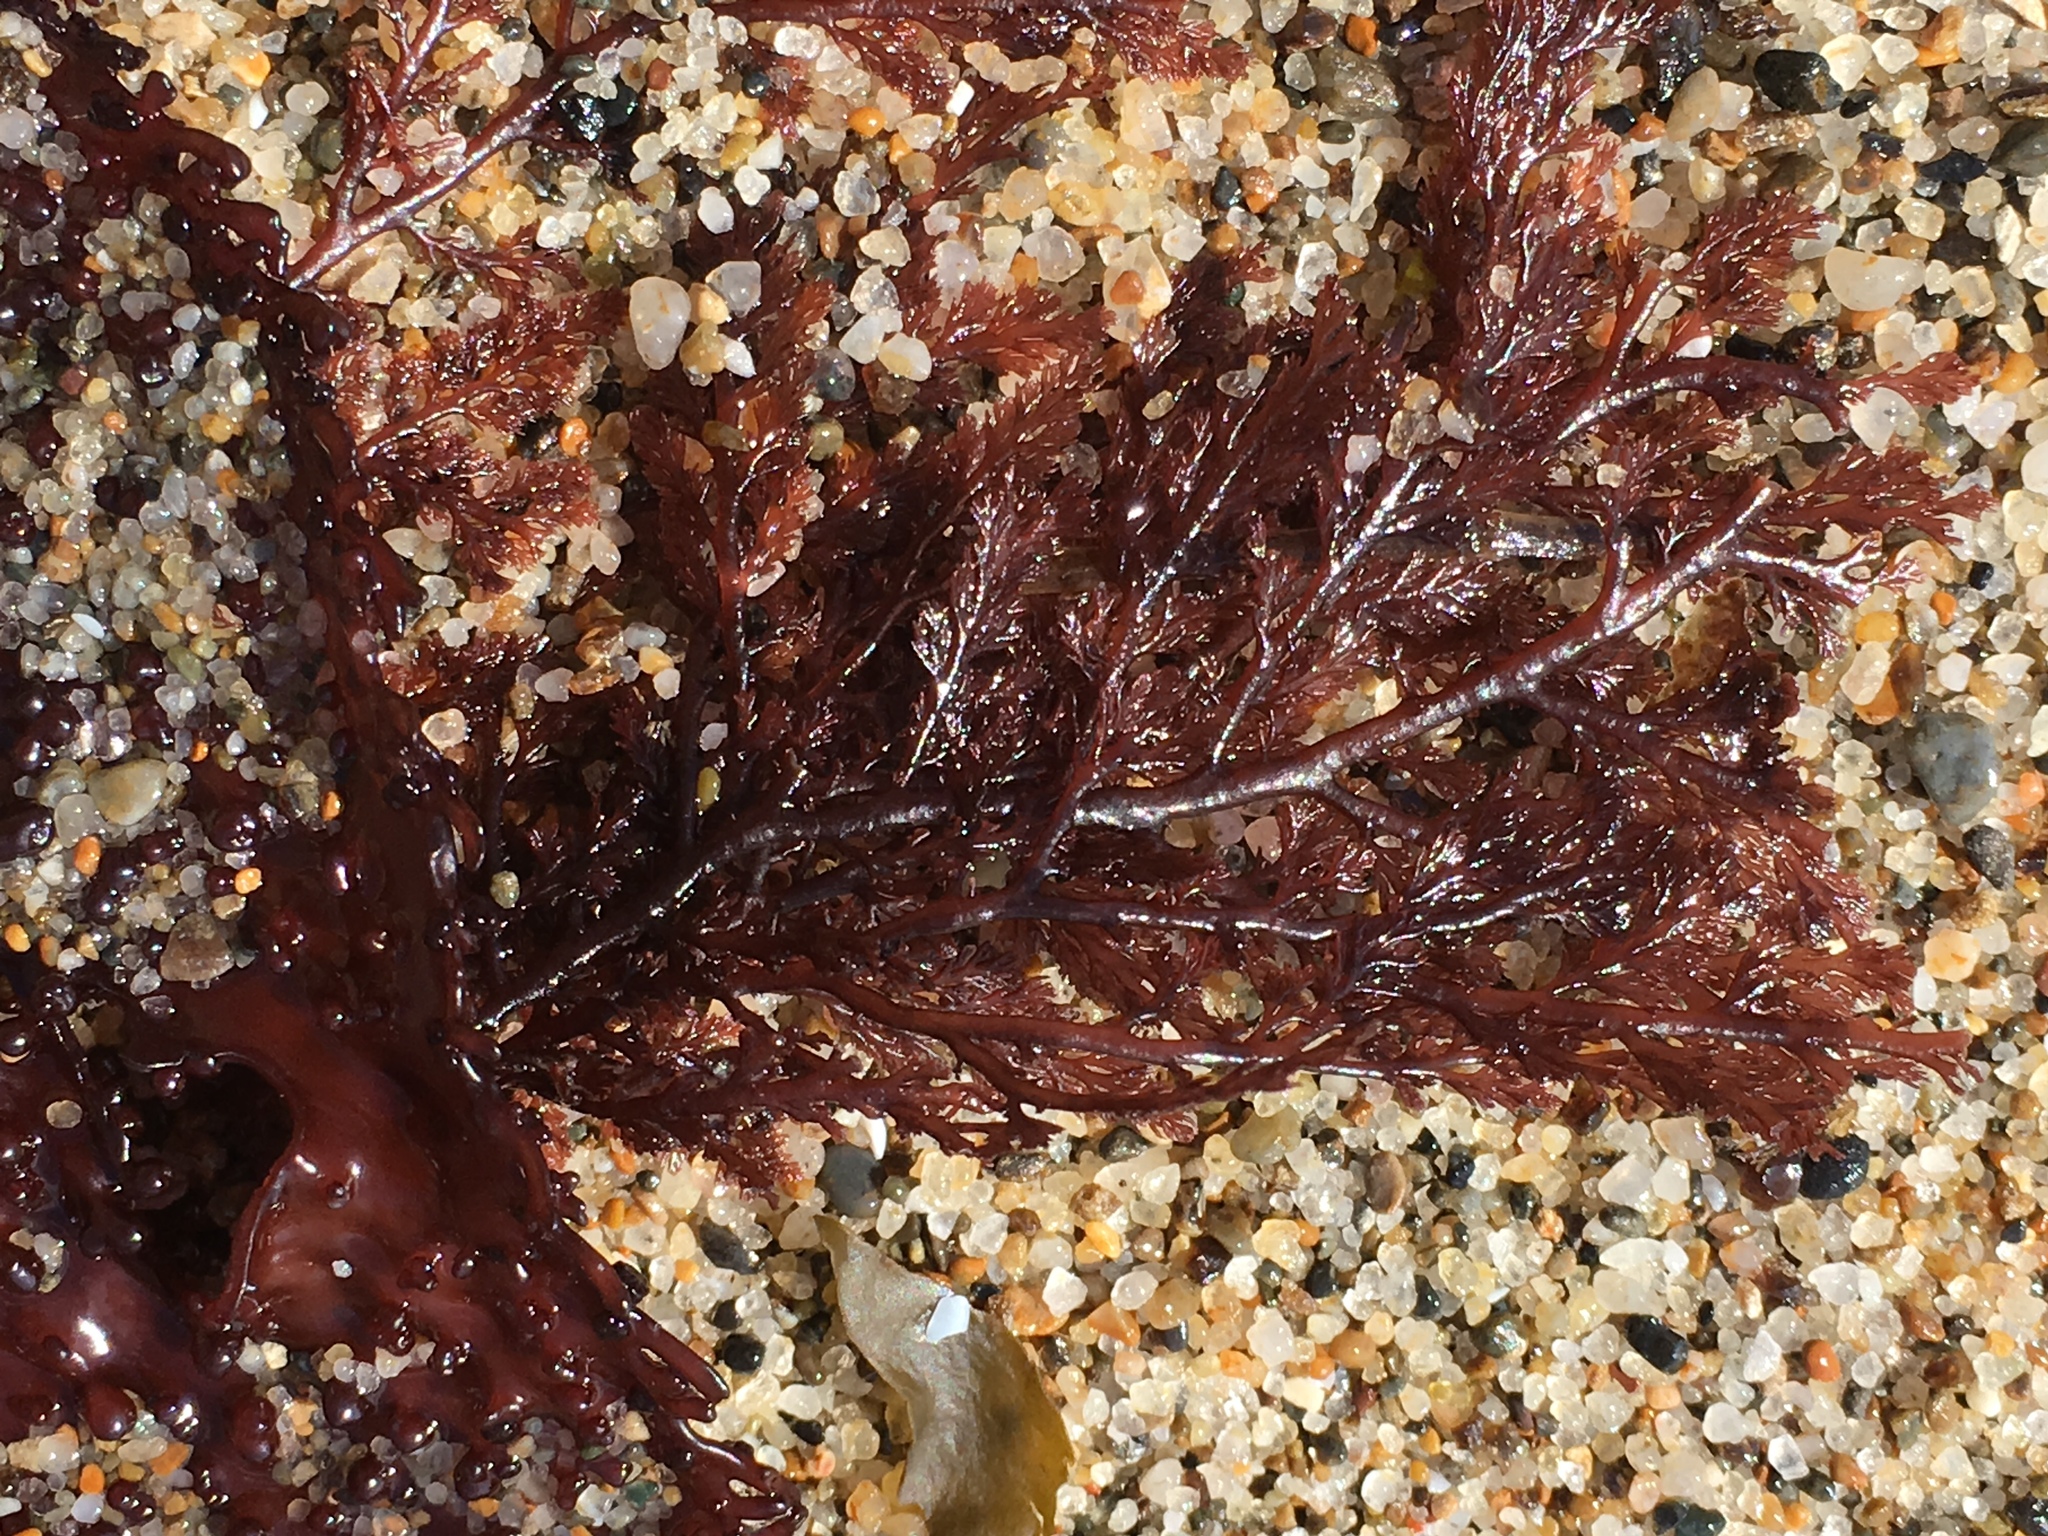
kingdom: Plantae
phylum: Rhodophyta
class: Florideophyceae
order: Ceramiales
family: Ceramiaceae
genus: Microcladia
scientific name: Microcladia coulteri
